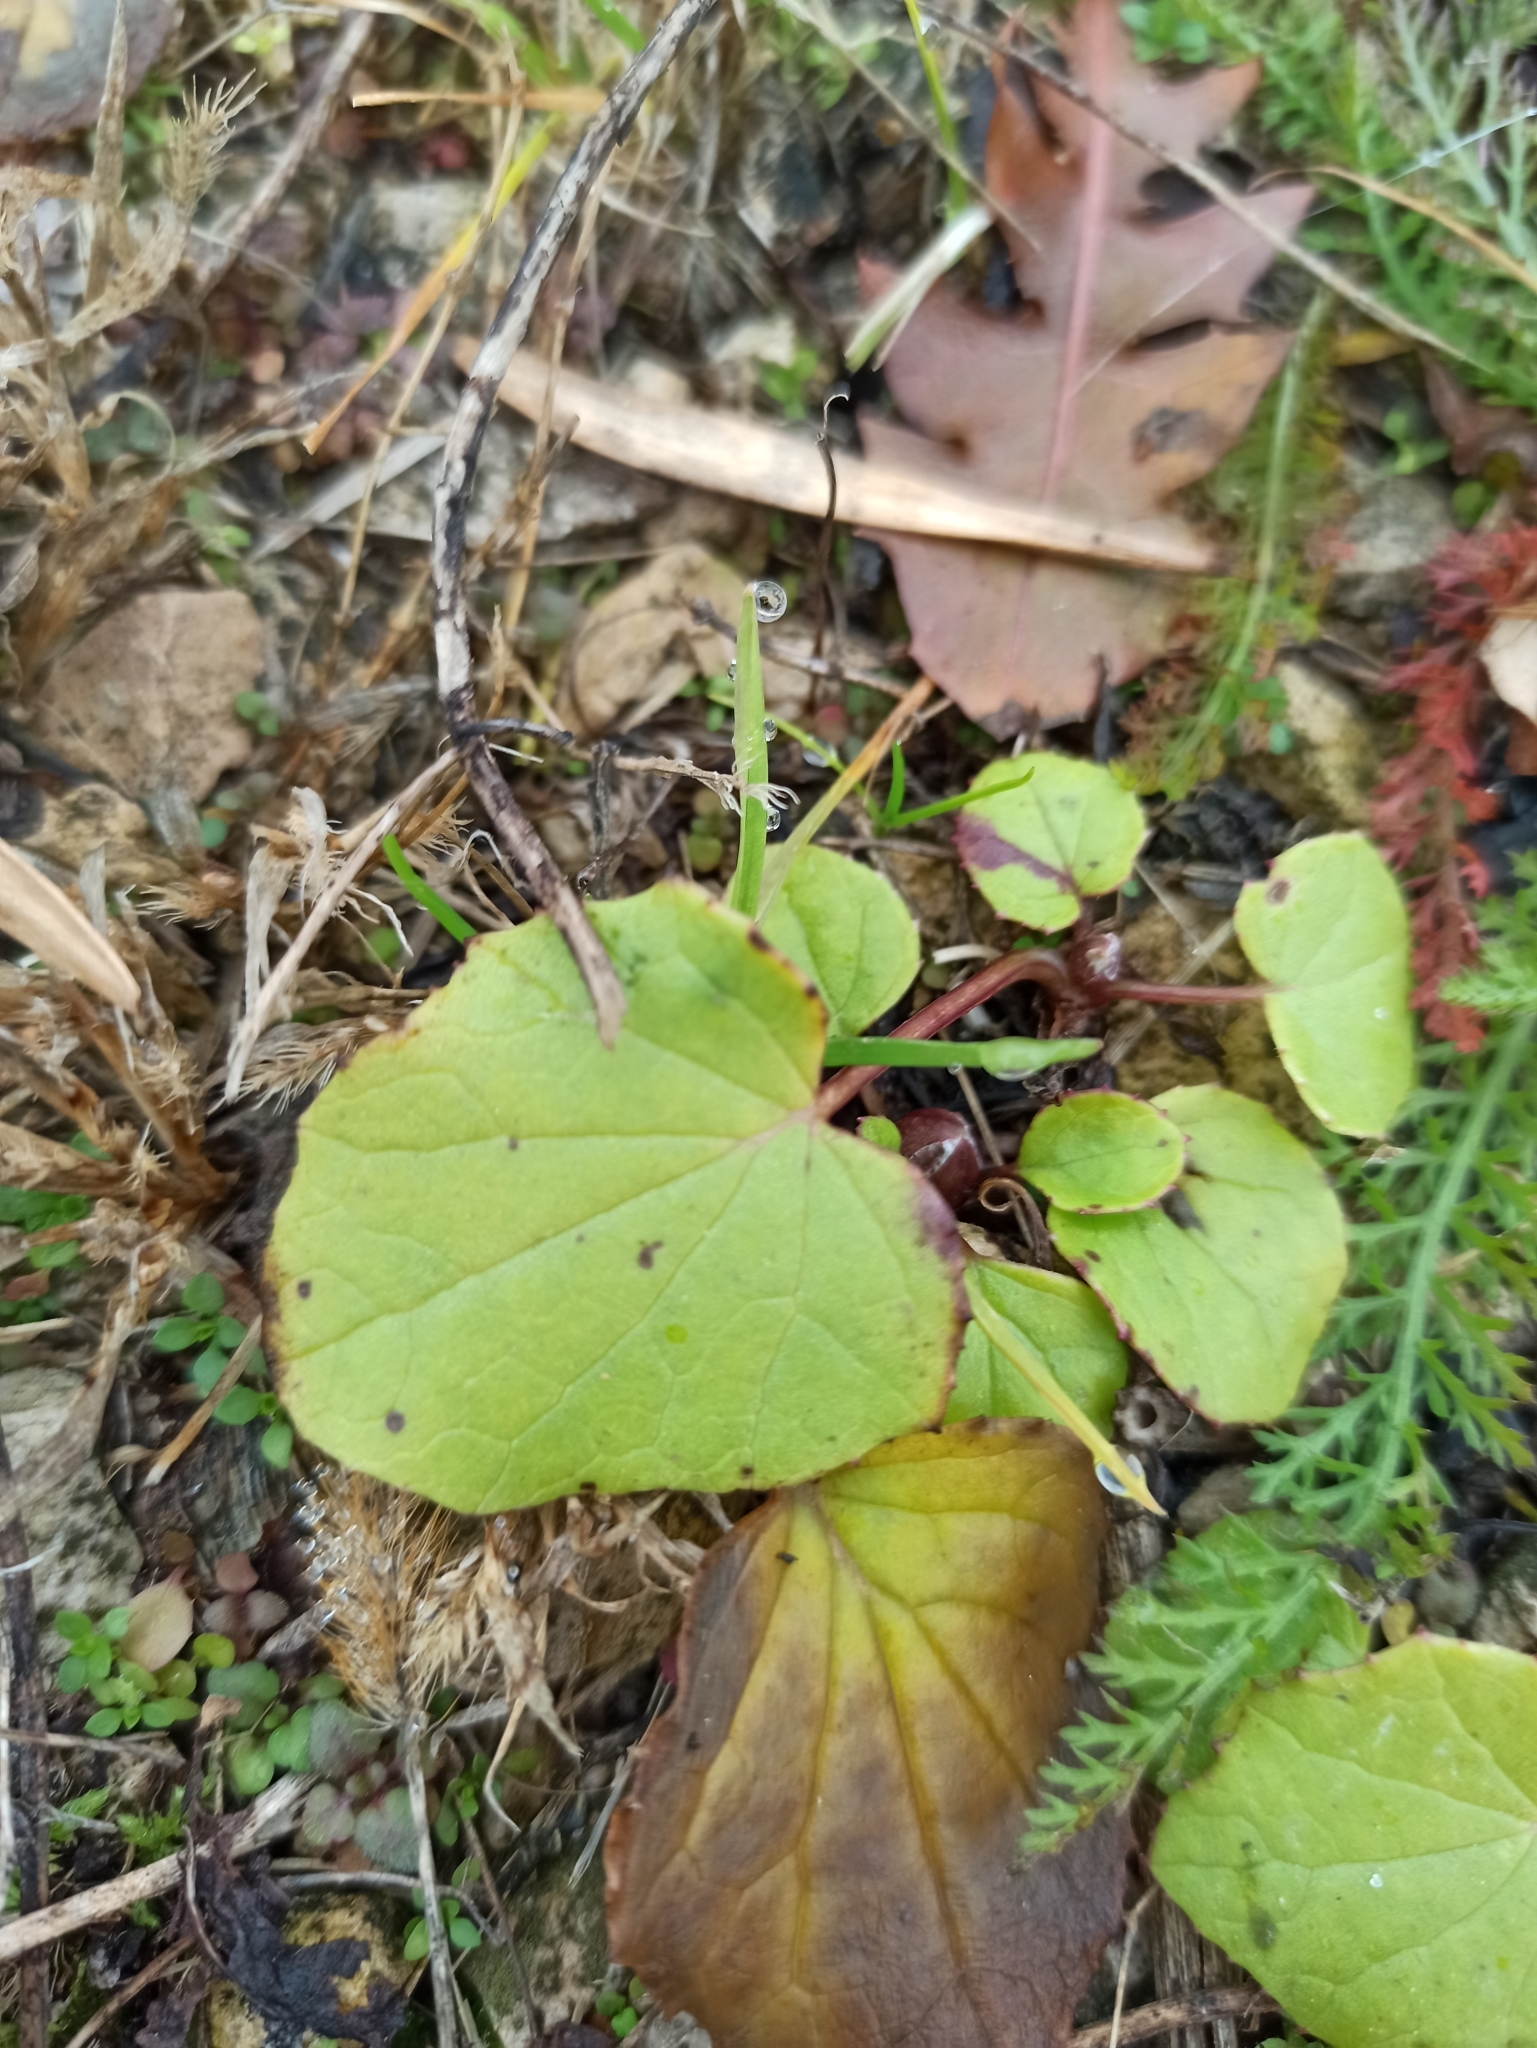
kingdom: Plantae
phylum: Tracheophyta
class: Magnoliopsida
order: Asterales
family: Asteraceae
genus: Tussilago
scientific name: Tussilago farfara
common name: Coltsfoot
